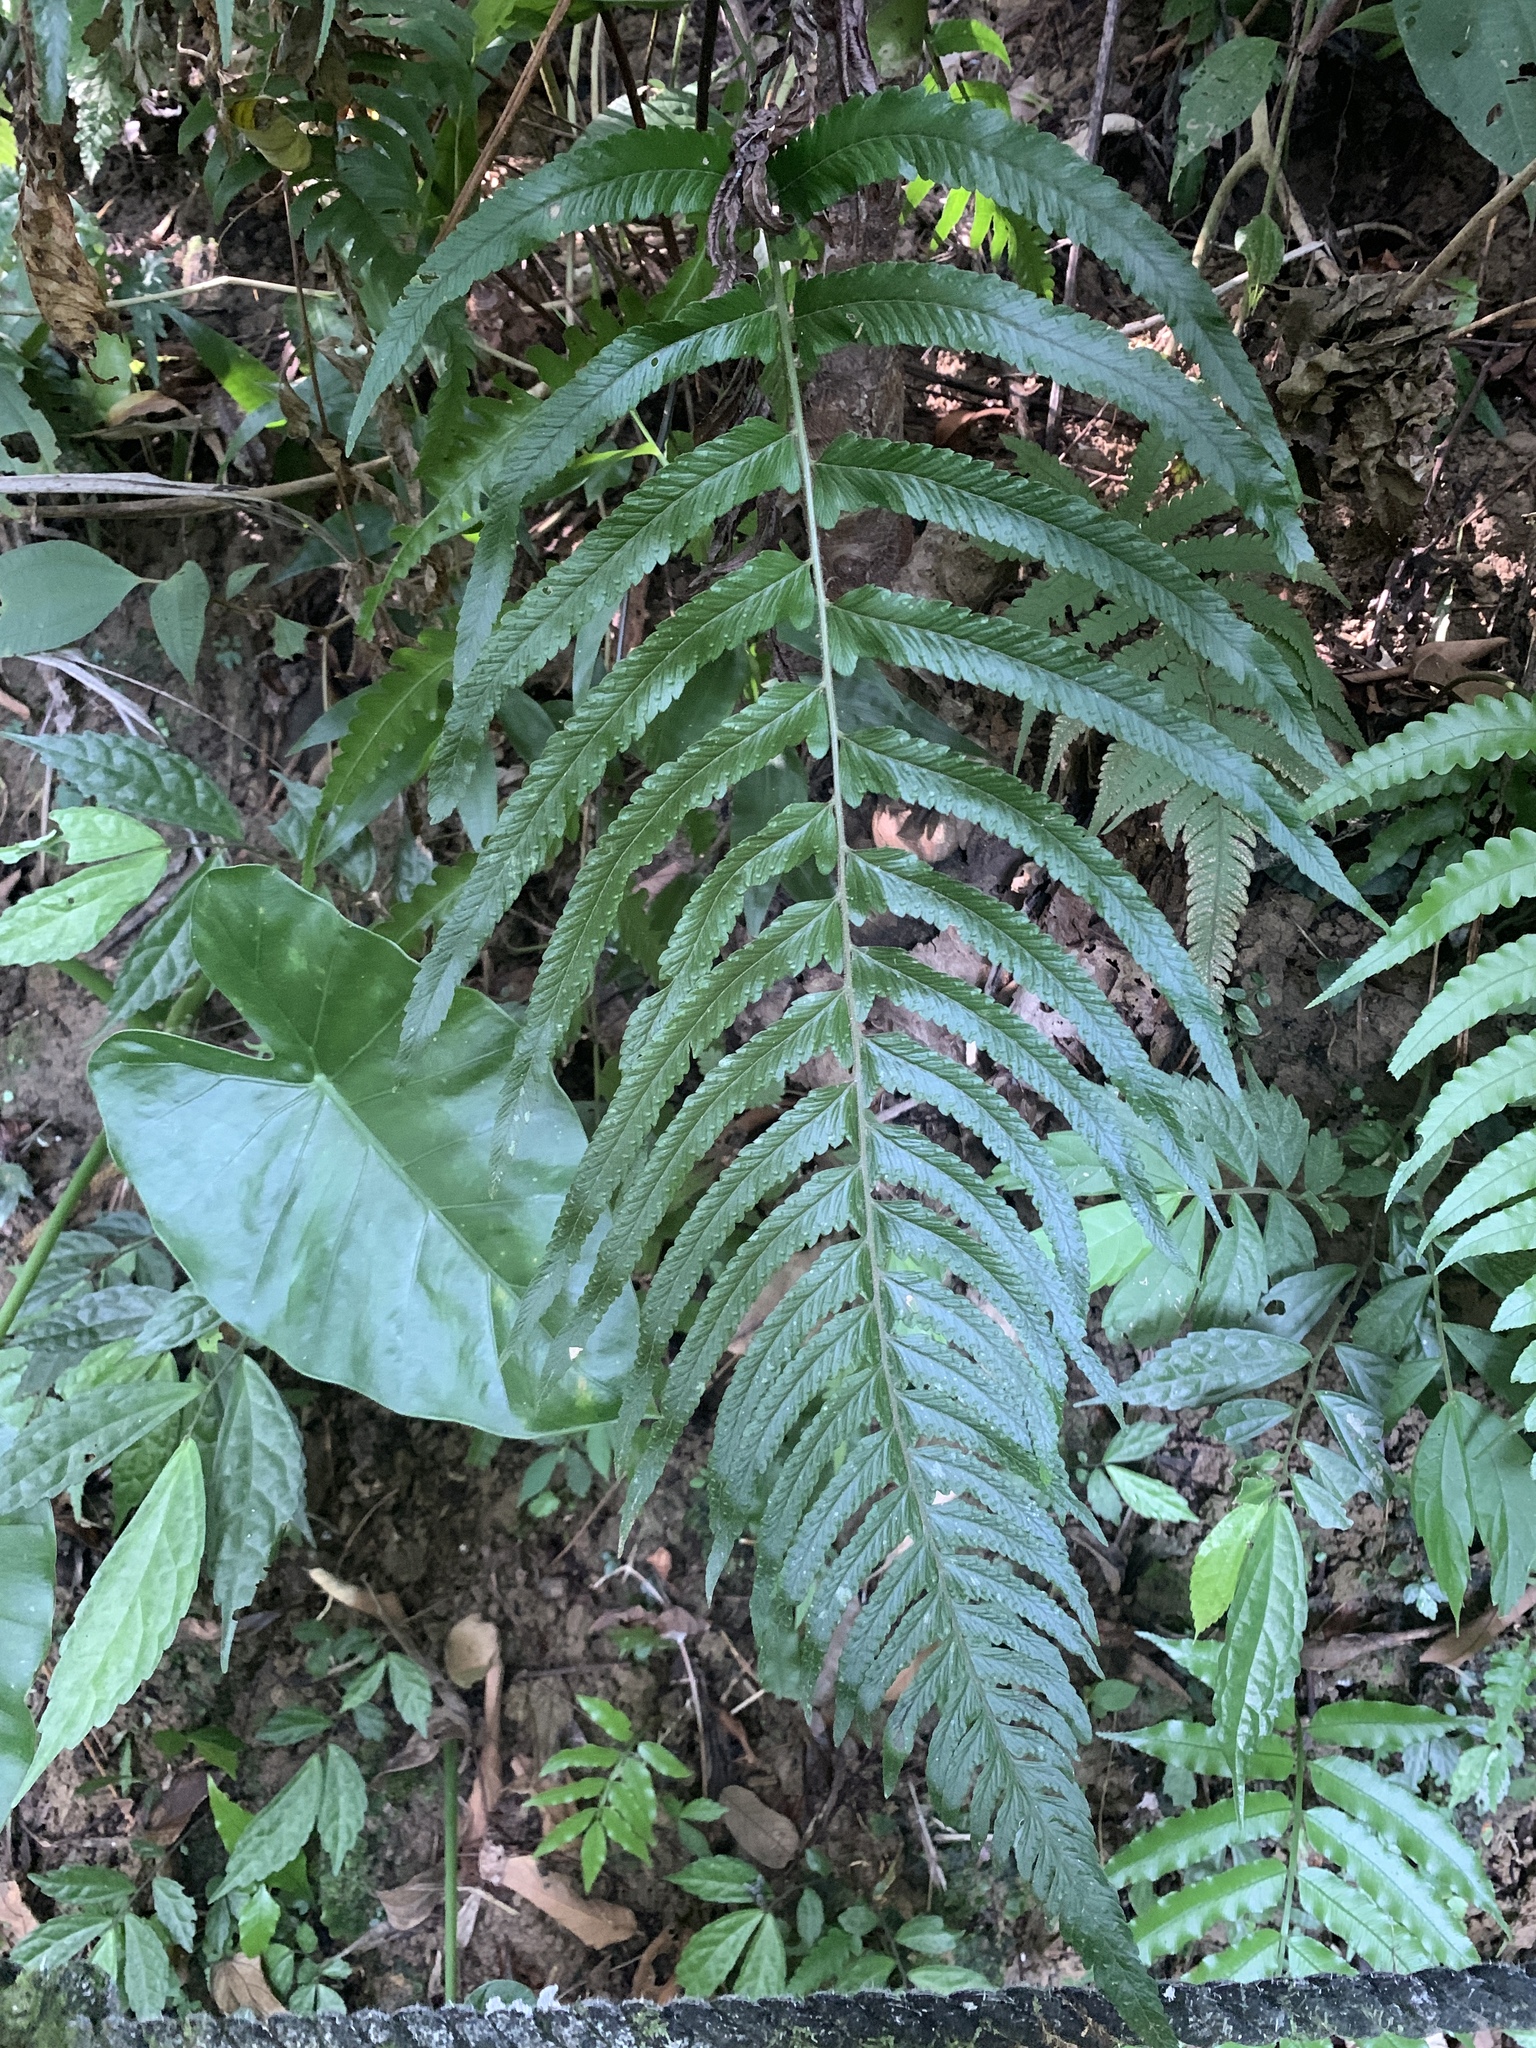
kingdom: Plantae
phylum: Tracheophyta
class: Polypodiopsida
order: Polypodiales
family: Dennstaedtiaceae
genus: Microlepia
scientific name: Microlepia marginata
